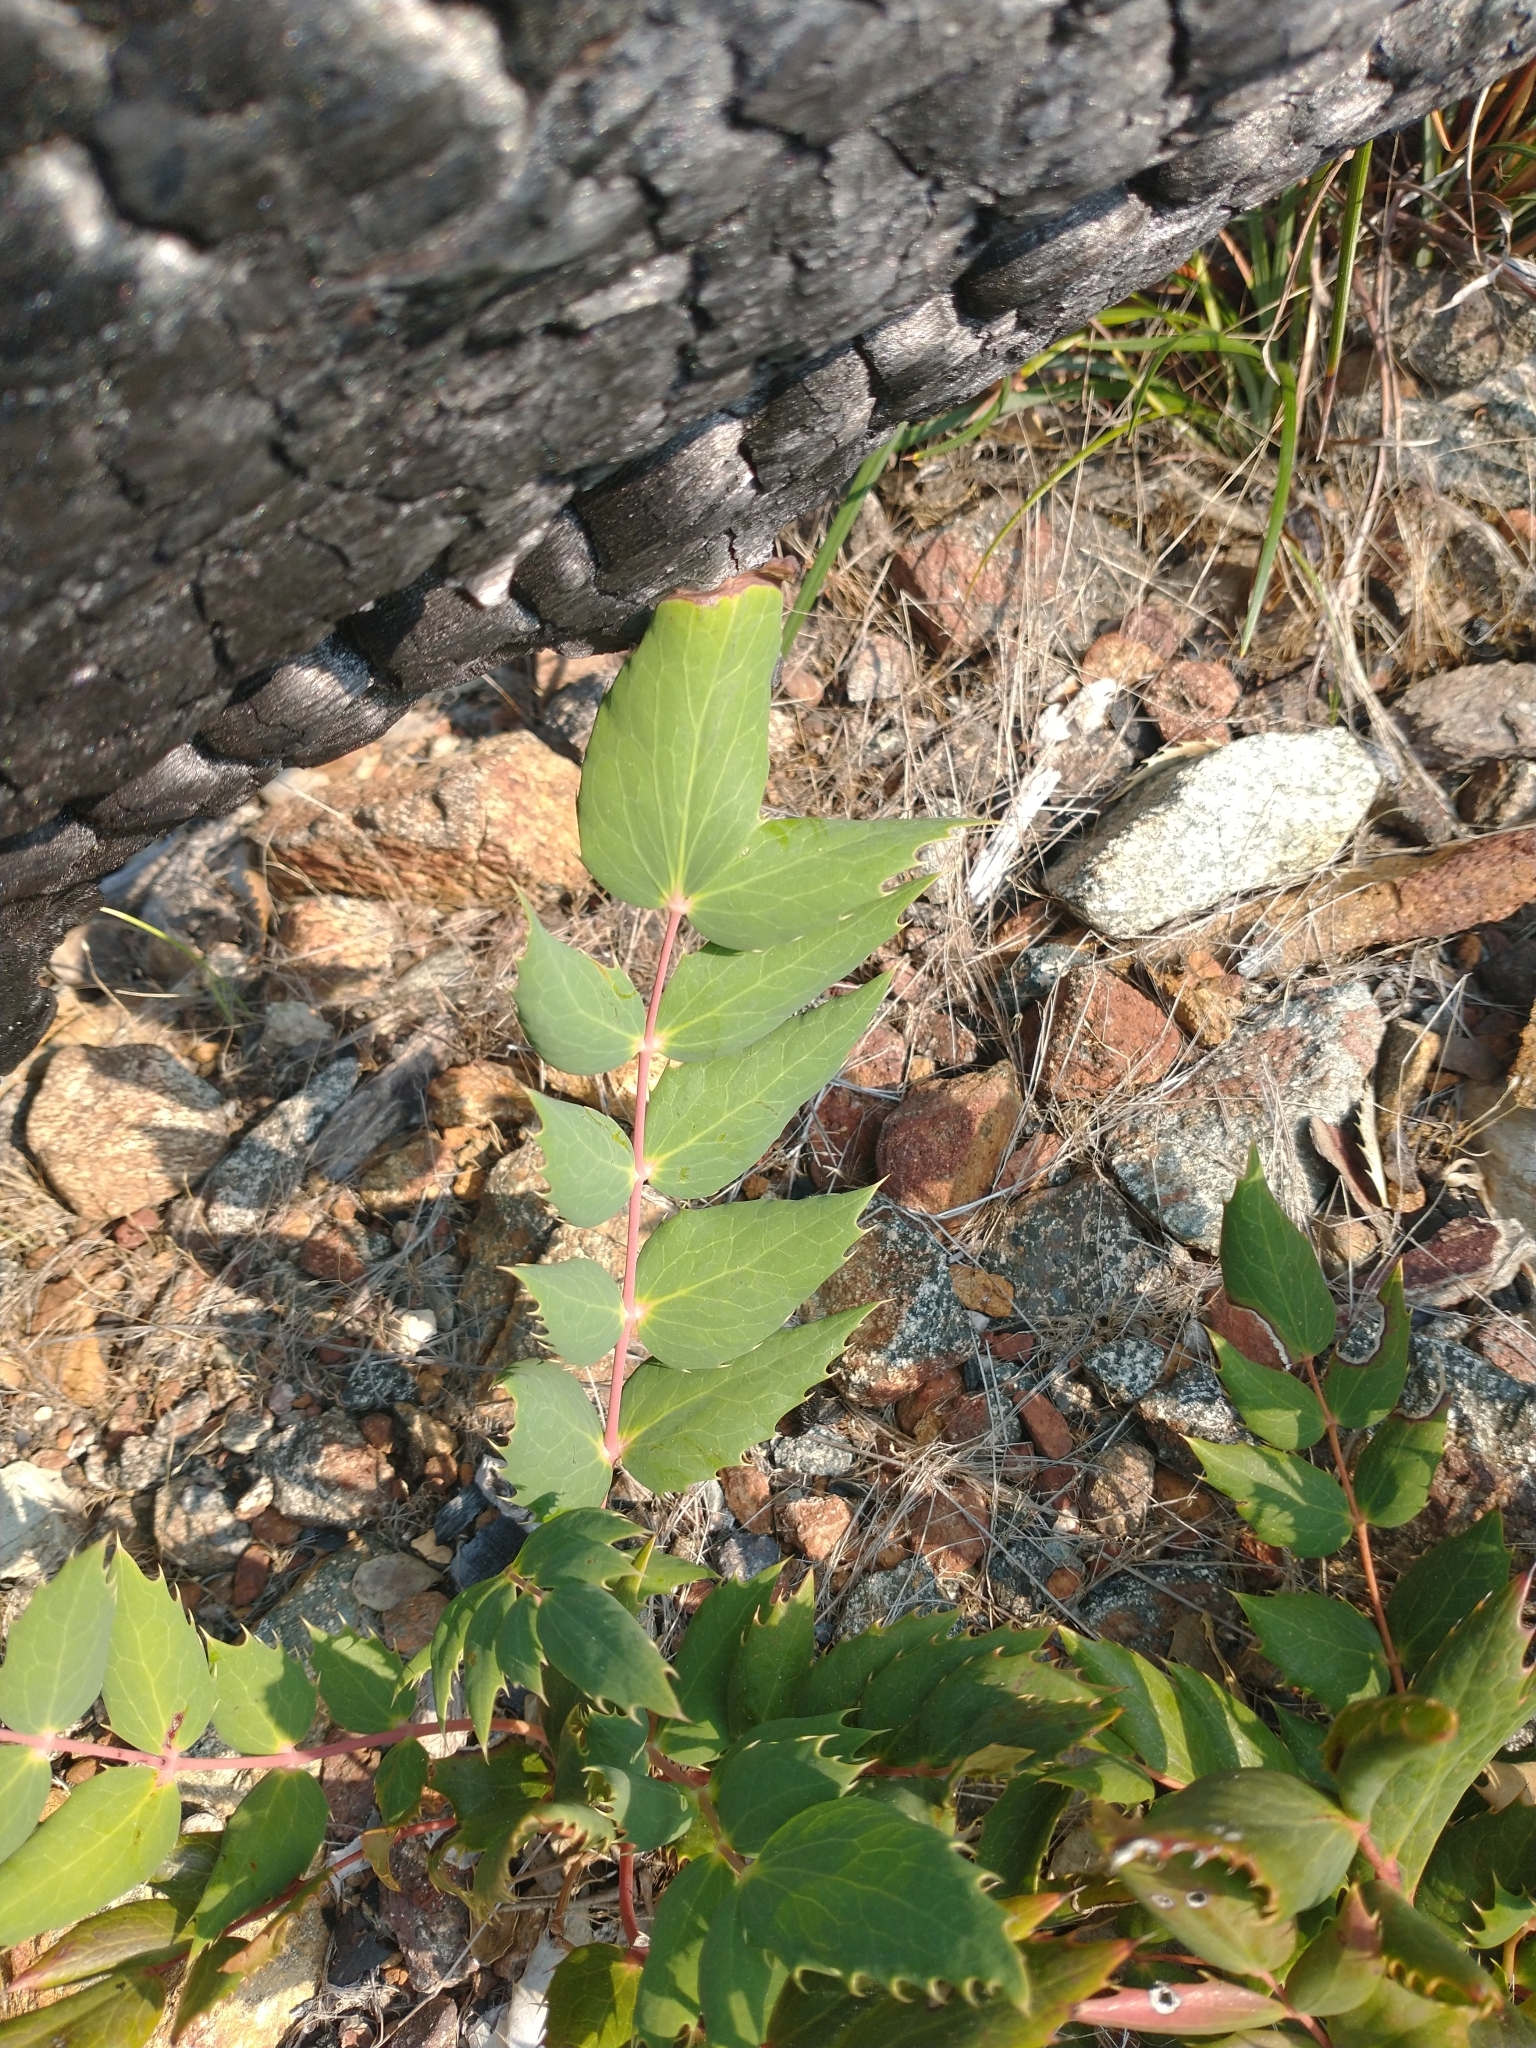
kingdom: Plantae
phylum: Tracheophyta
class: Magnoliopsida
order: Ranunculales
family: Berberidaceae
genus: Mahonia
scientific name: Mahonia nervosa
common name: Cascade oregon-grape
